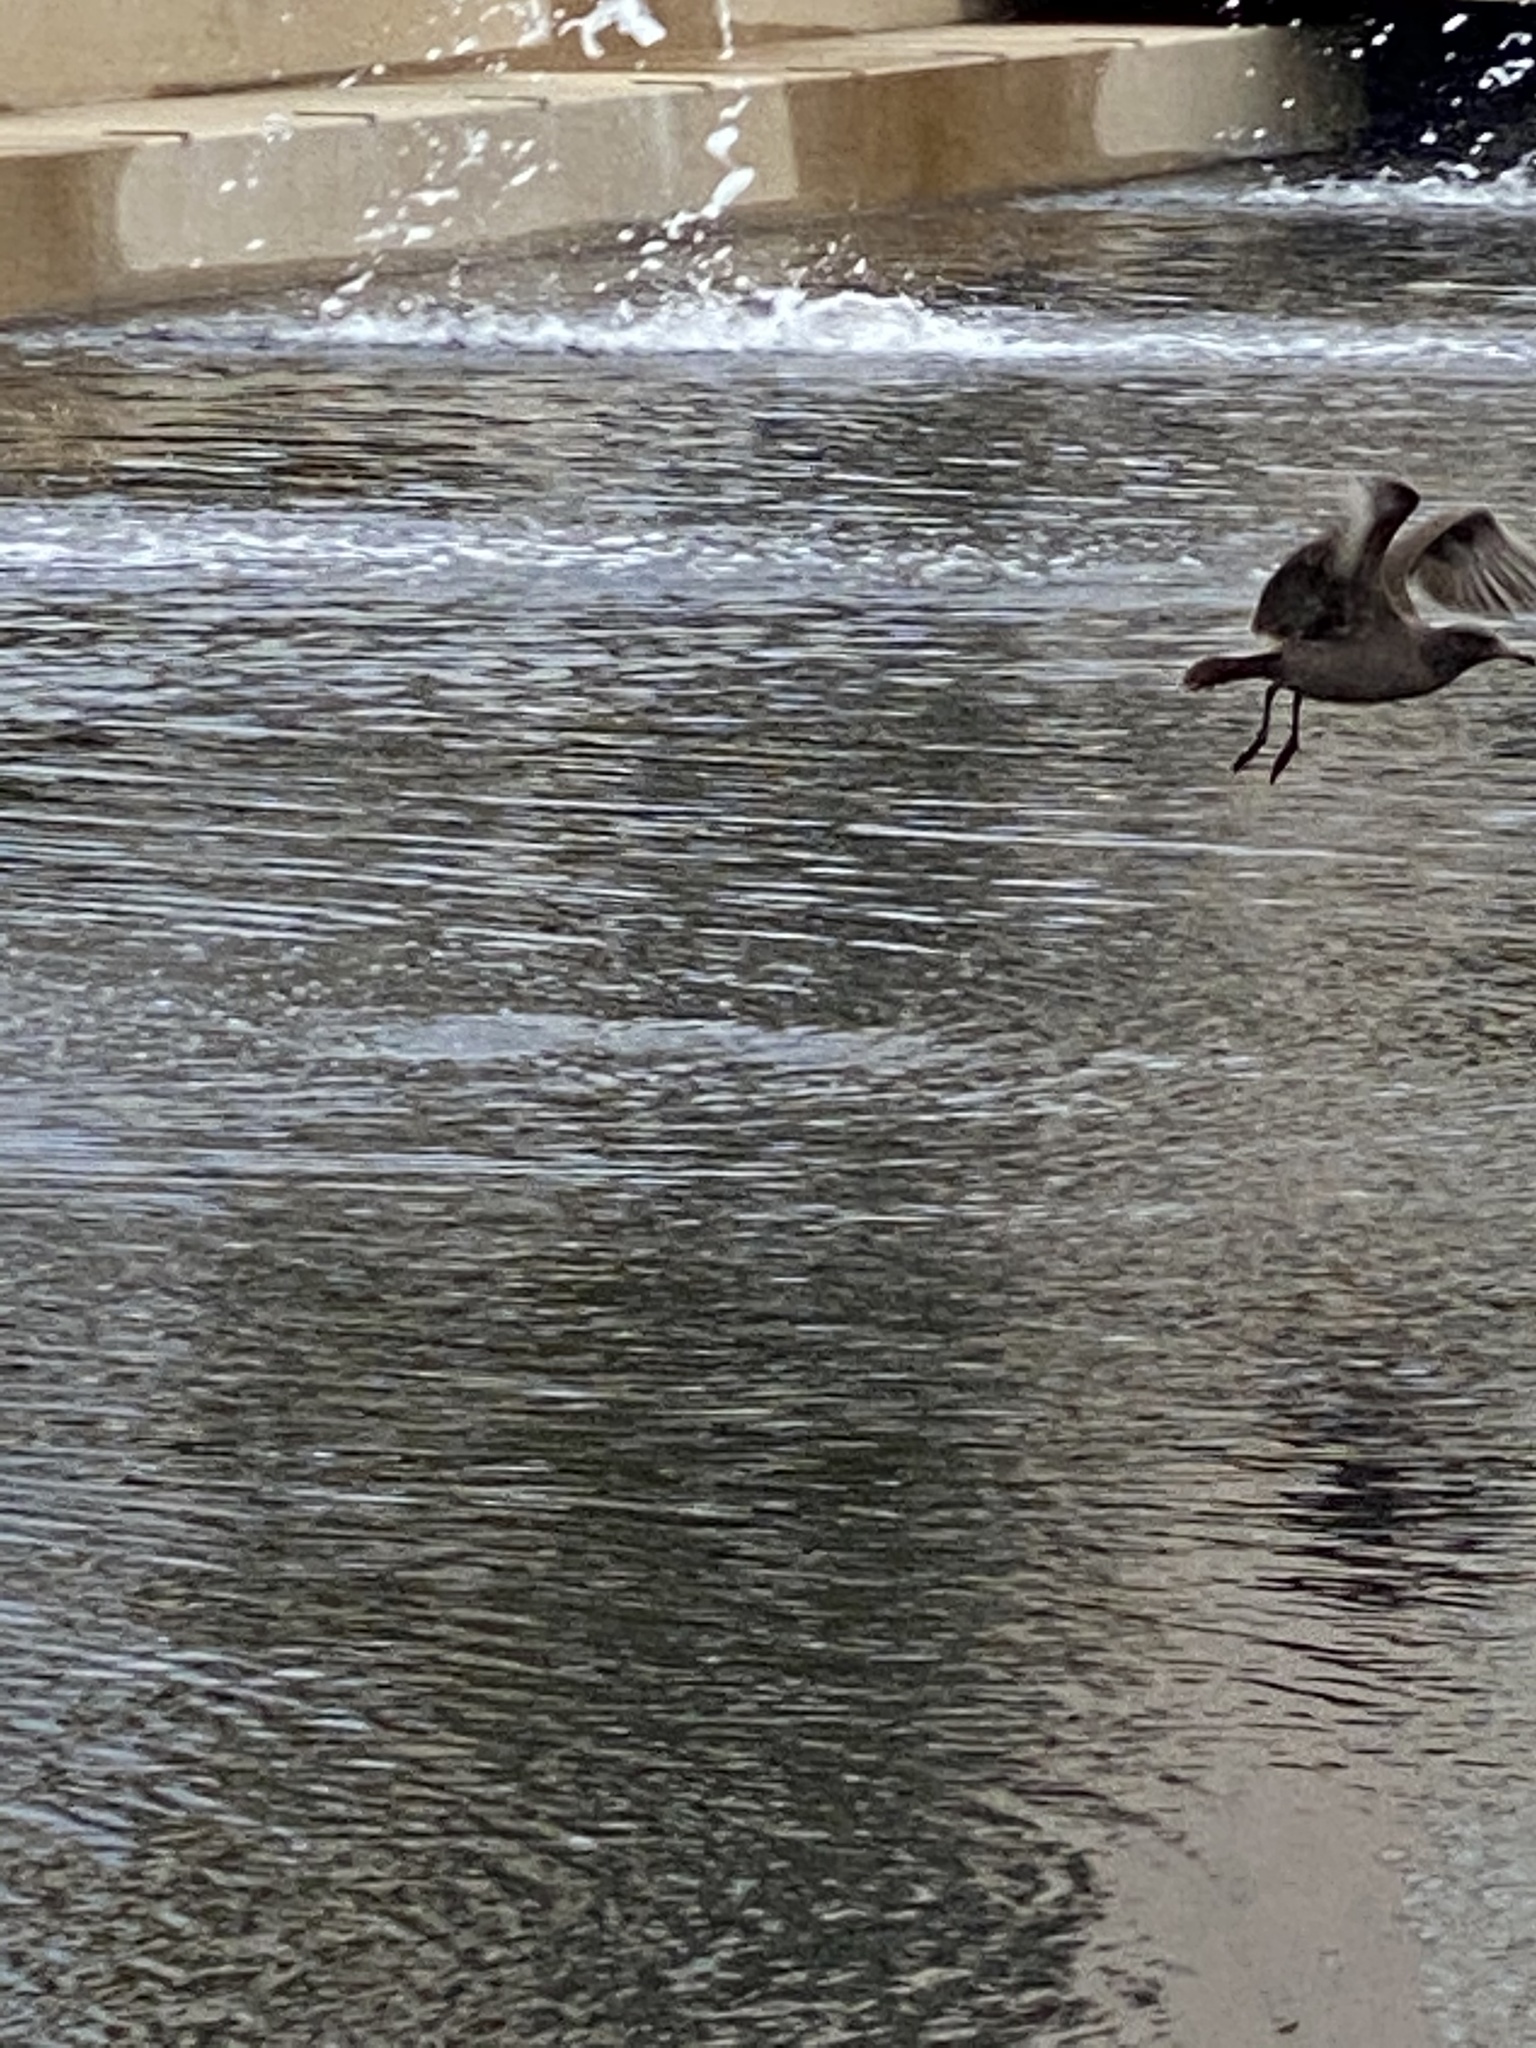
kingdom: Animalia
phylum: Chordata
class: Aves
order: Charadriiformes
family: Laridae
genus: Larus
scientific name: Larus heermanni
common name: Heermann's gull
